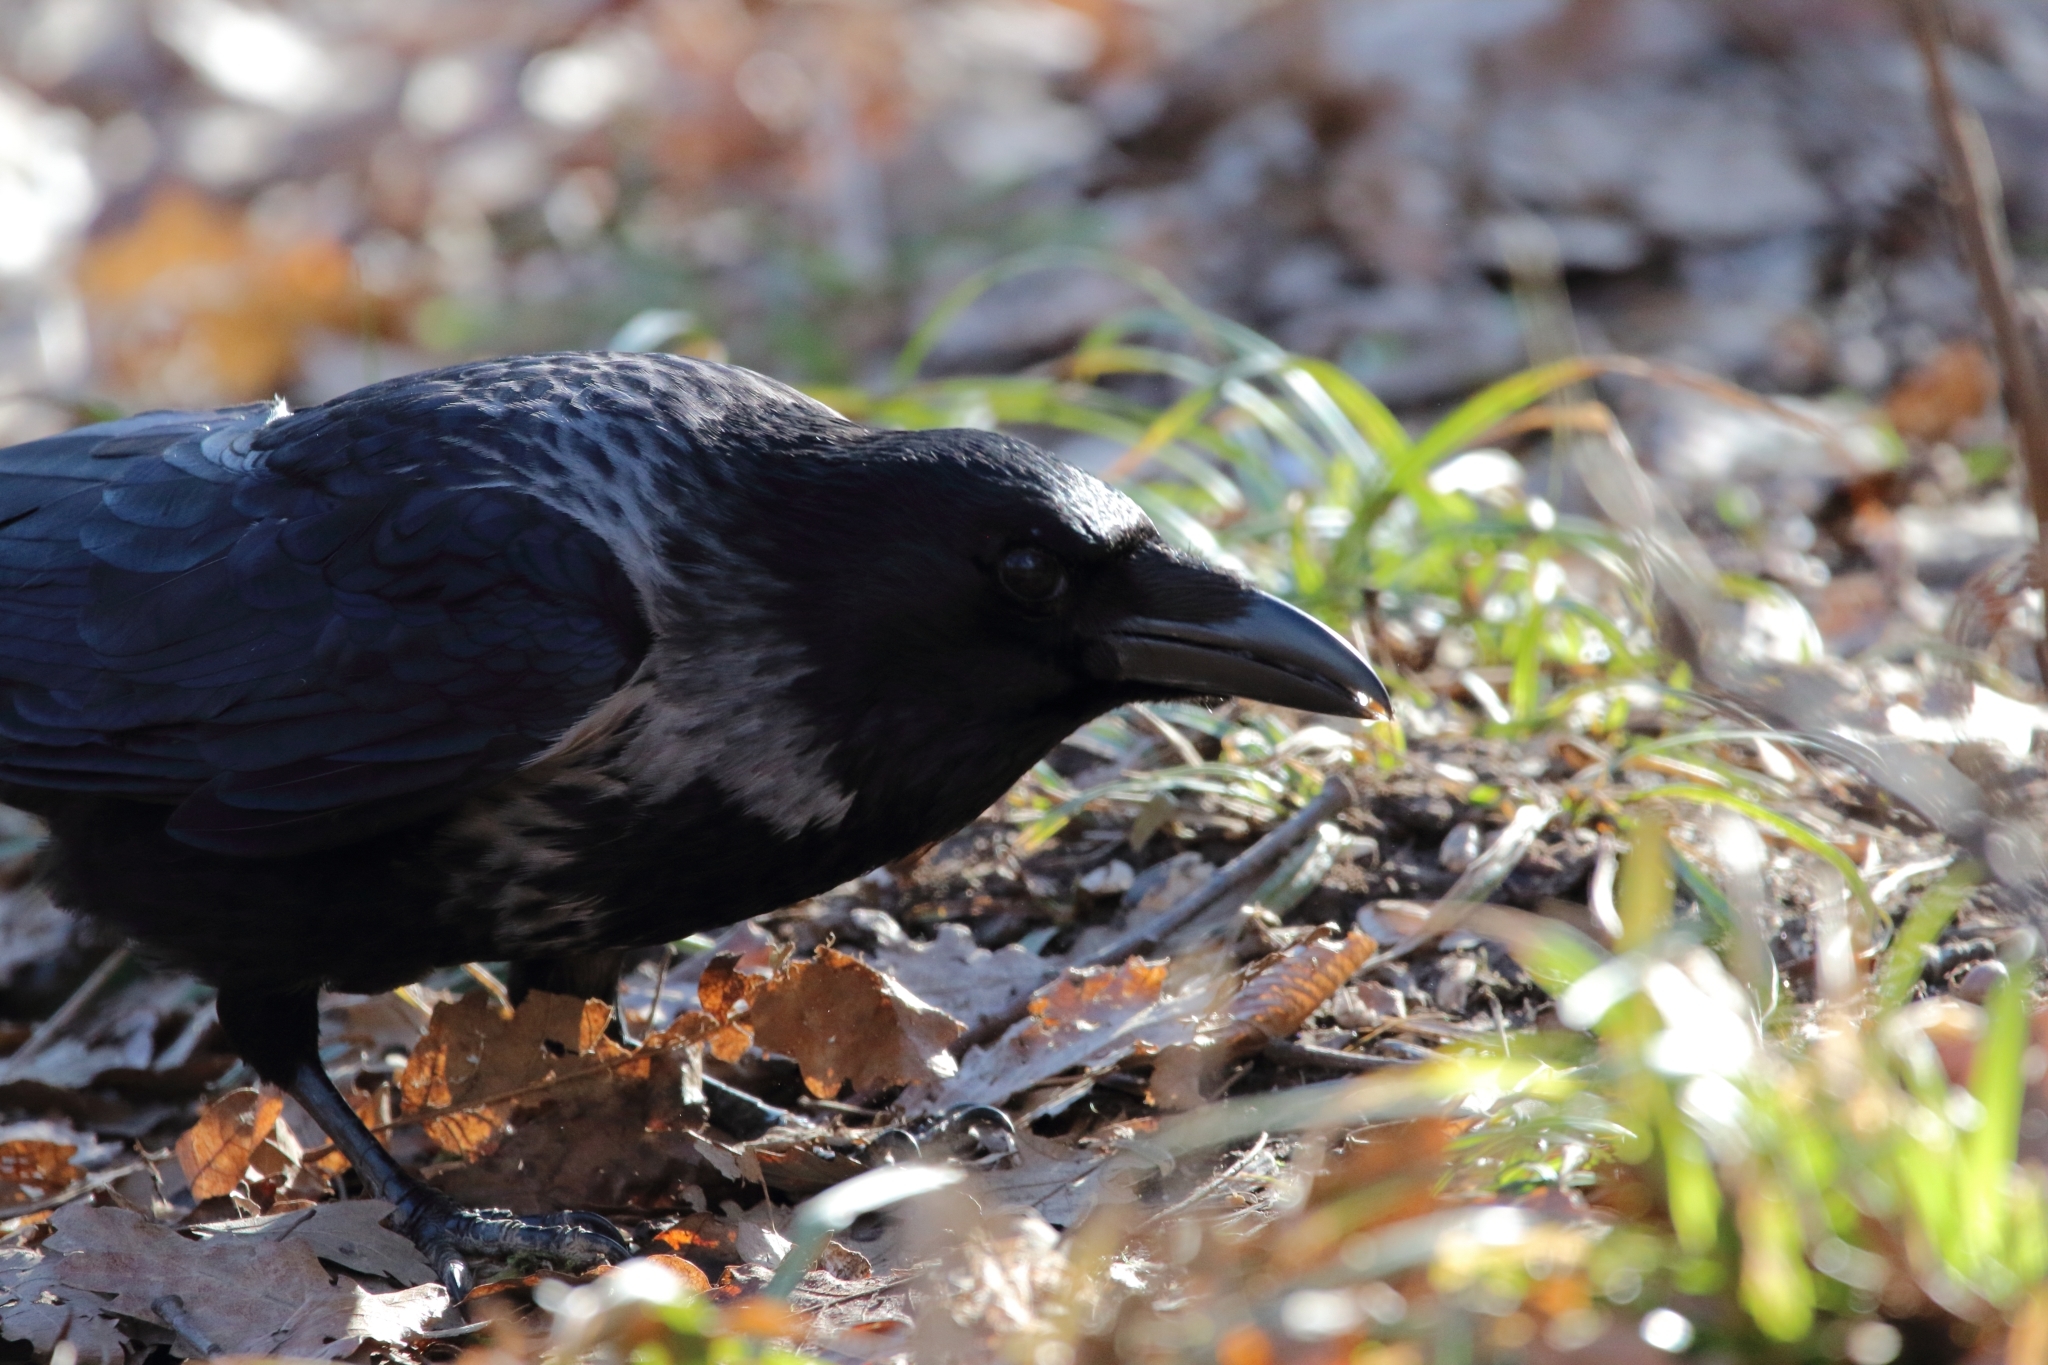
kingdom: Animalia
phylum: Chordata
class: Aves
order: Passeriformes
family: Corvidae
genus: Corvus
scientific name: Corvus
